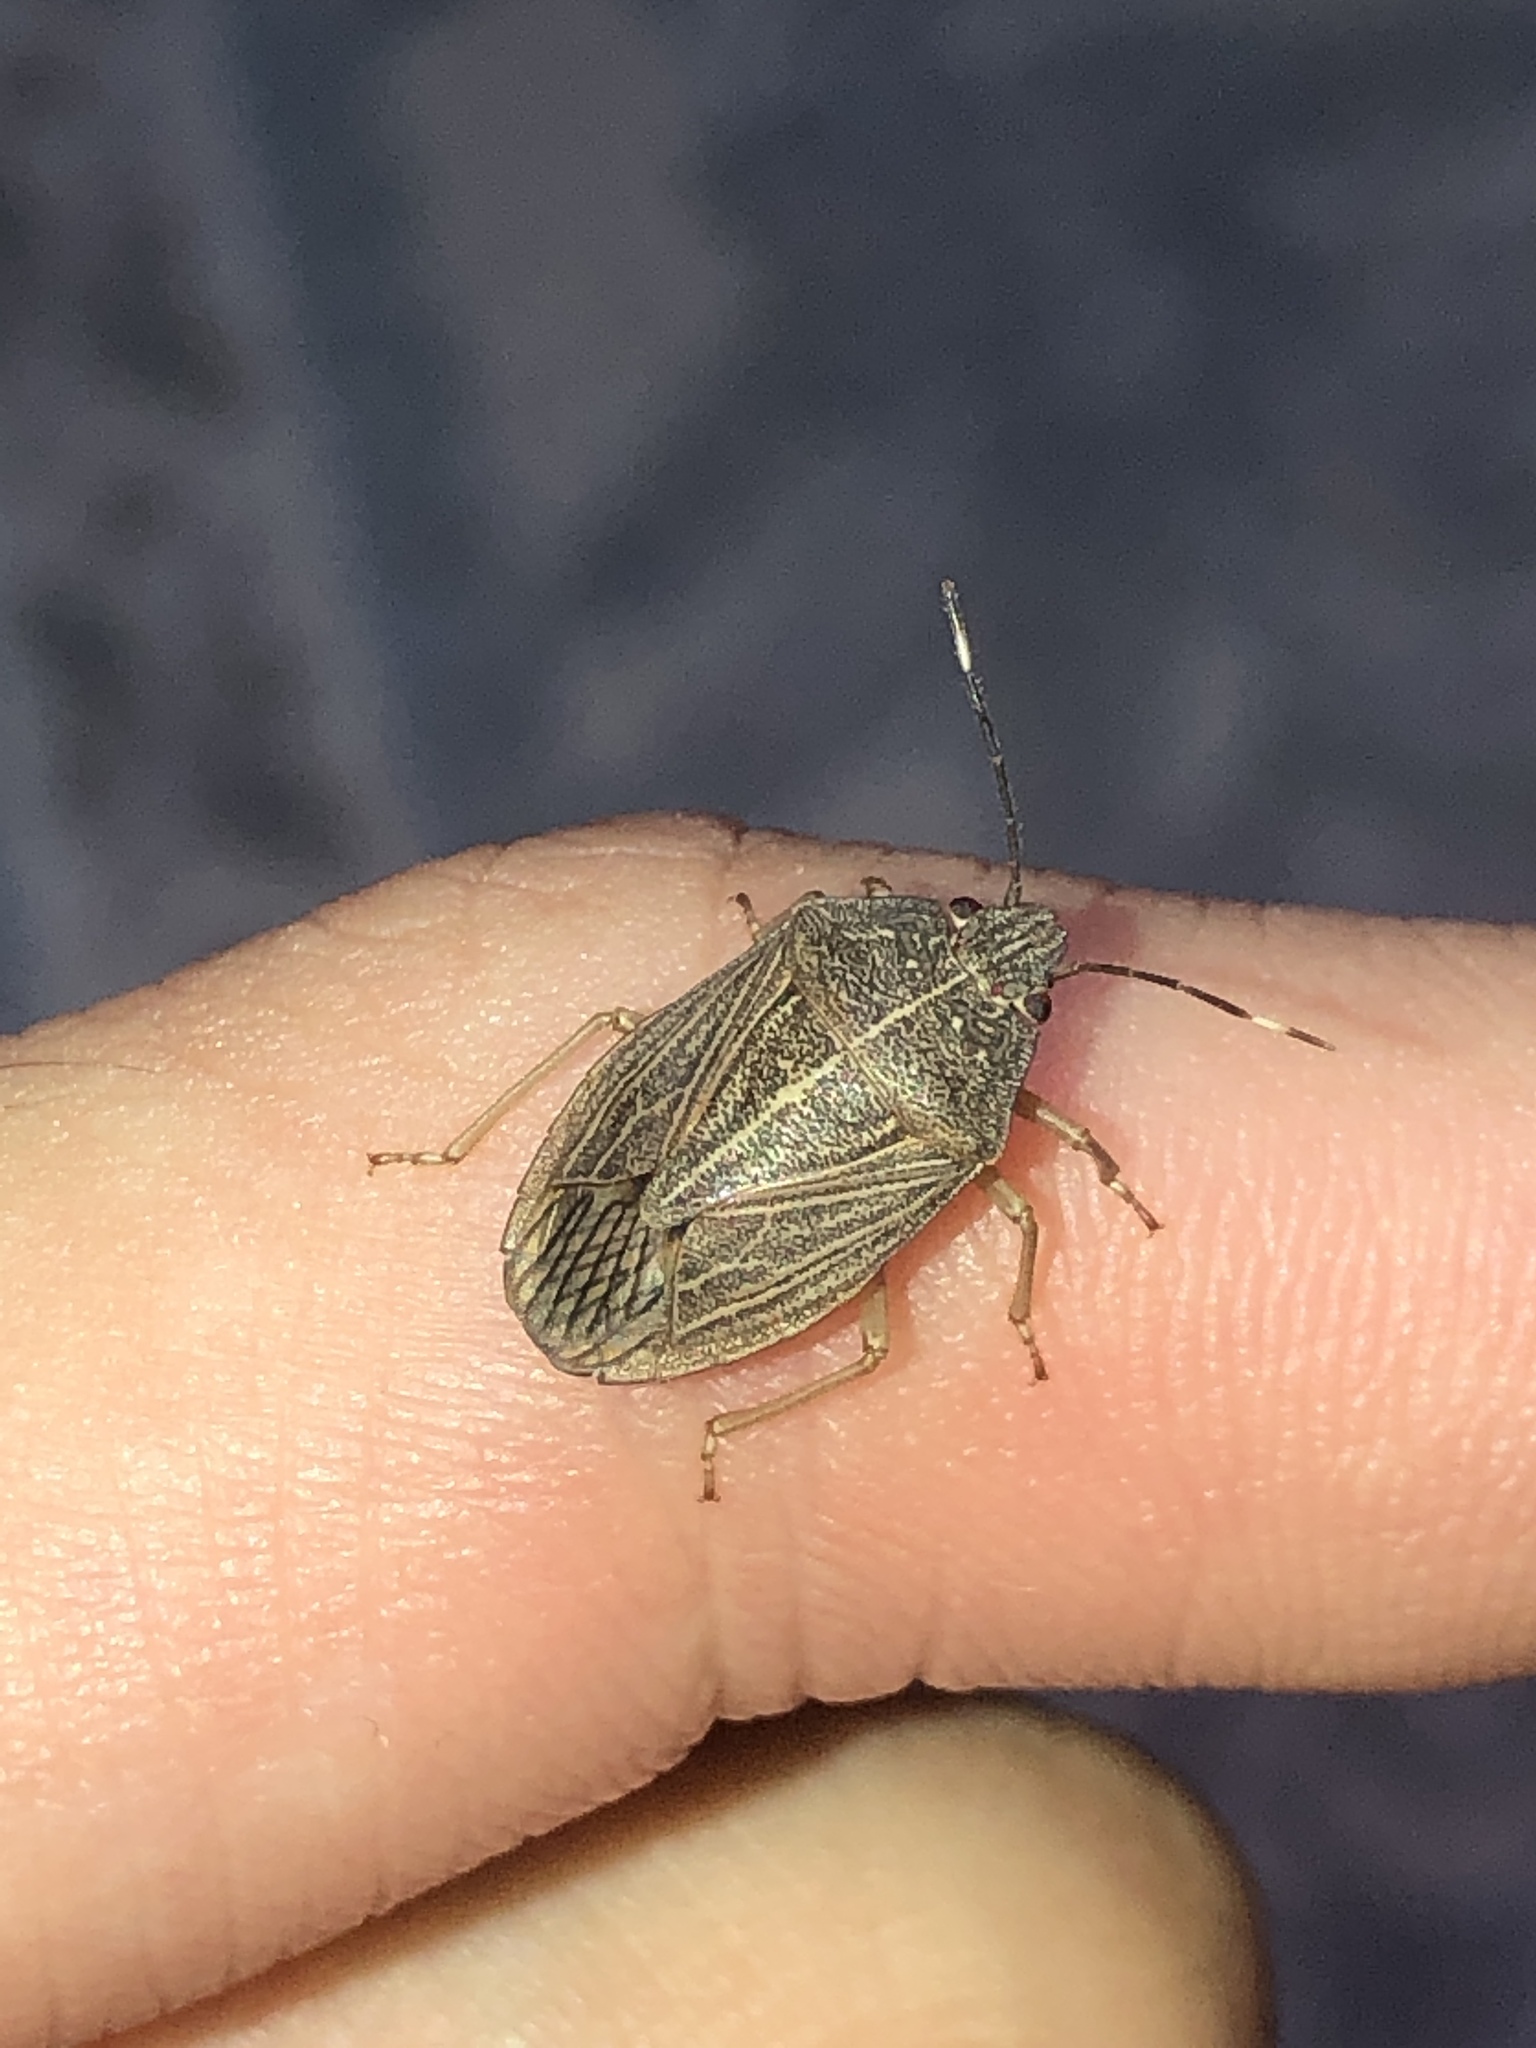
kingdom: Animalia
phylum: Arthropoda
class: Insecta
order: Hemiptera
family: Pentatomidae
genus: Caystrus
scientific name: Caystrus depressus
